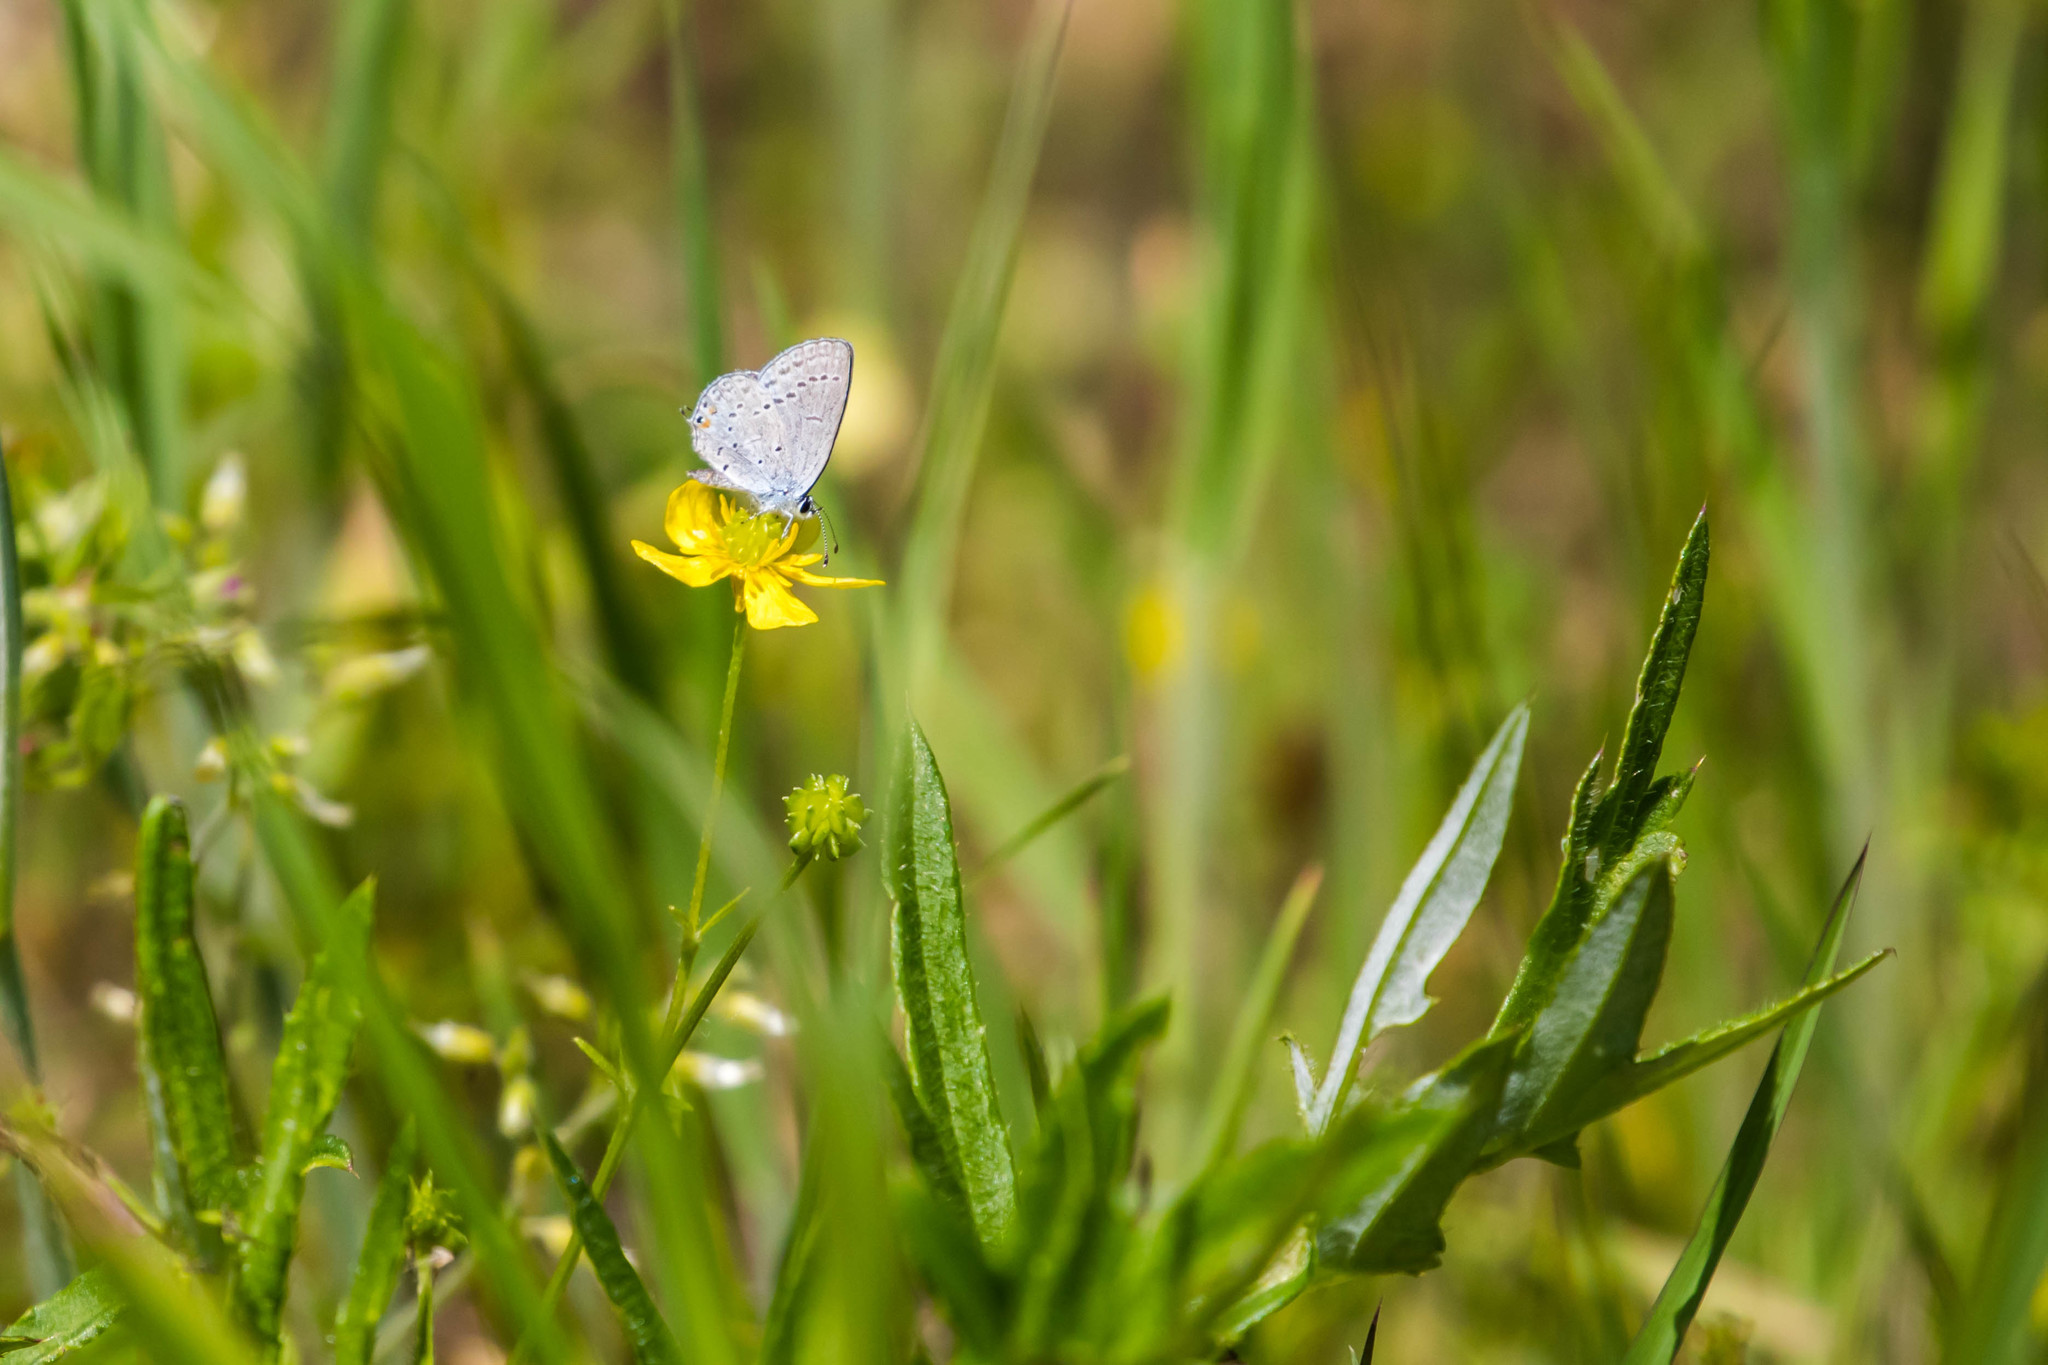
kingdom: Animalia
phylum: Arthropoda
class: Insecta
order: Lepidoptera
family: Lycaenidae
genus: Elkalyce
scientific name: Elkalyce comyntas
